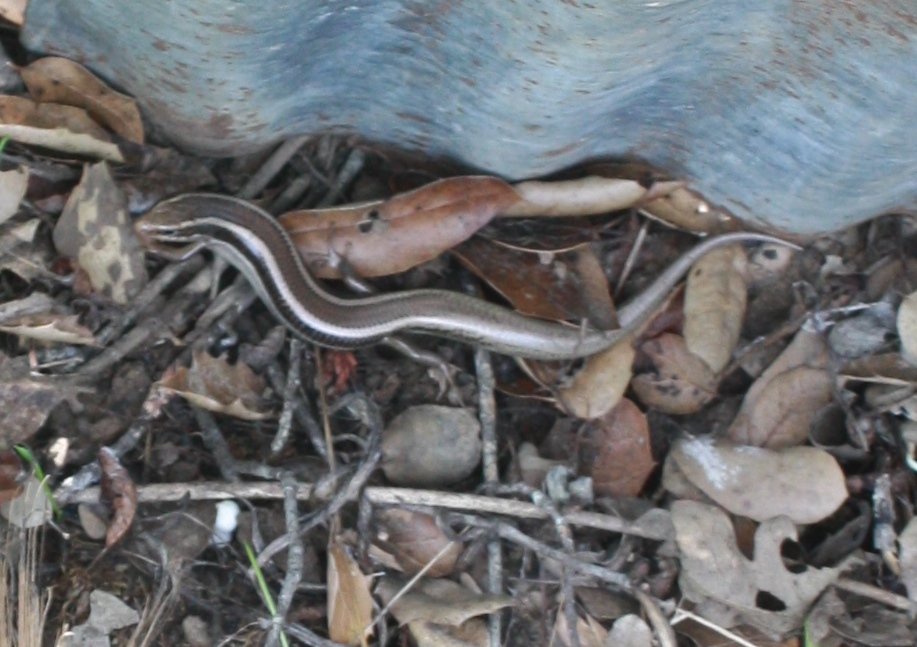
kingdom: Animalia
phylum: Chordata
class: Squamata
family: Scincidae
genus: Plestiodon
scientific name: Plestiodon skiltonianus
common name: Coronado island skink [interparietalis]
